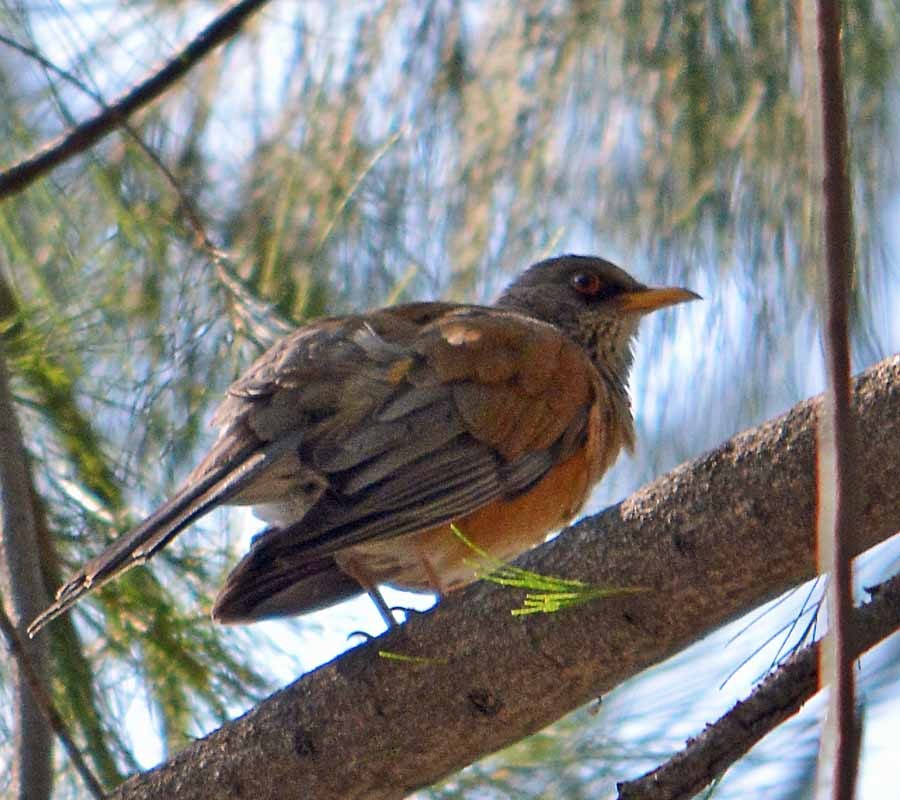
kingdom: Animalia
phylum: Chordata
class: Aves
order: Passeriformes
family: Turdidae
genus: Turdus
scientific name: Turdus rufopalliatus
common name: Rufous-backed robin
